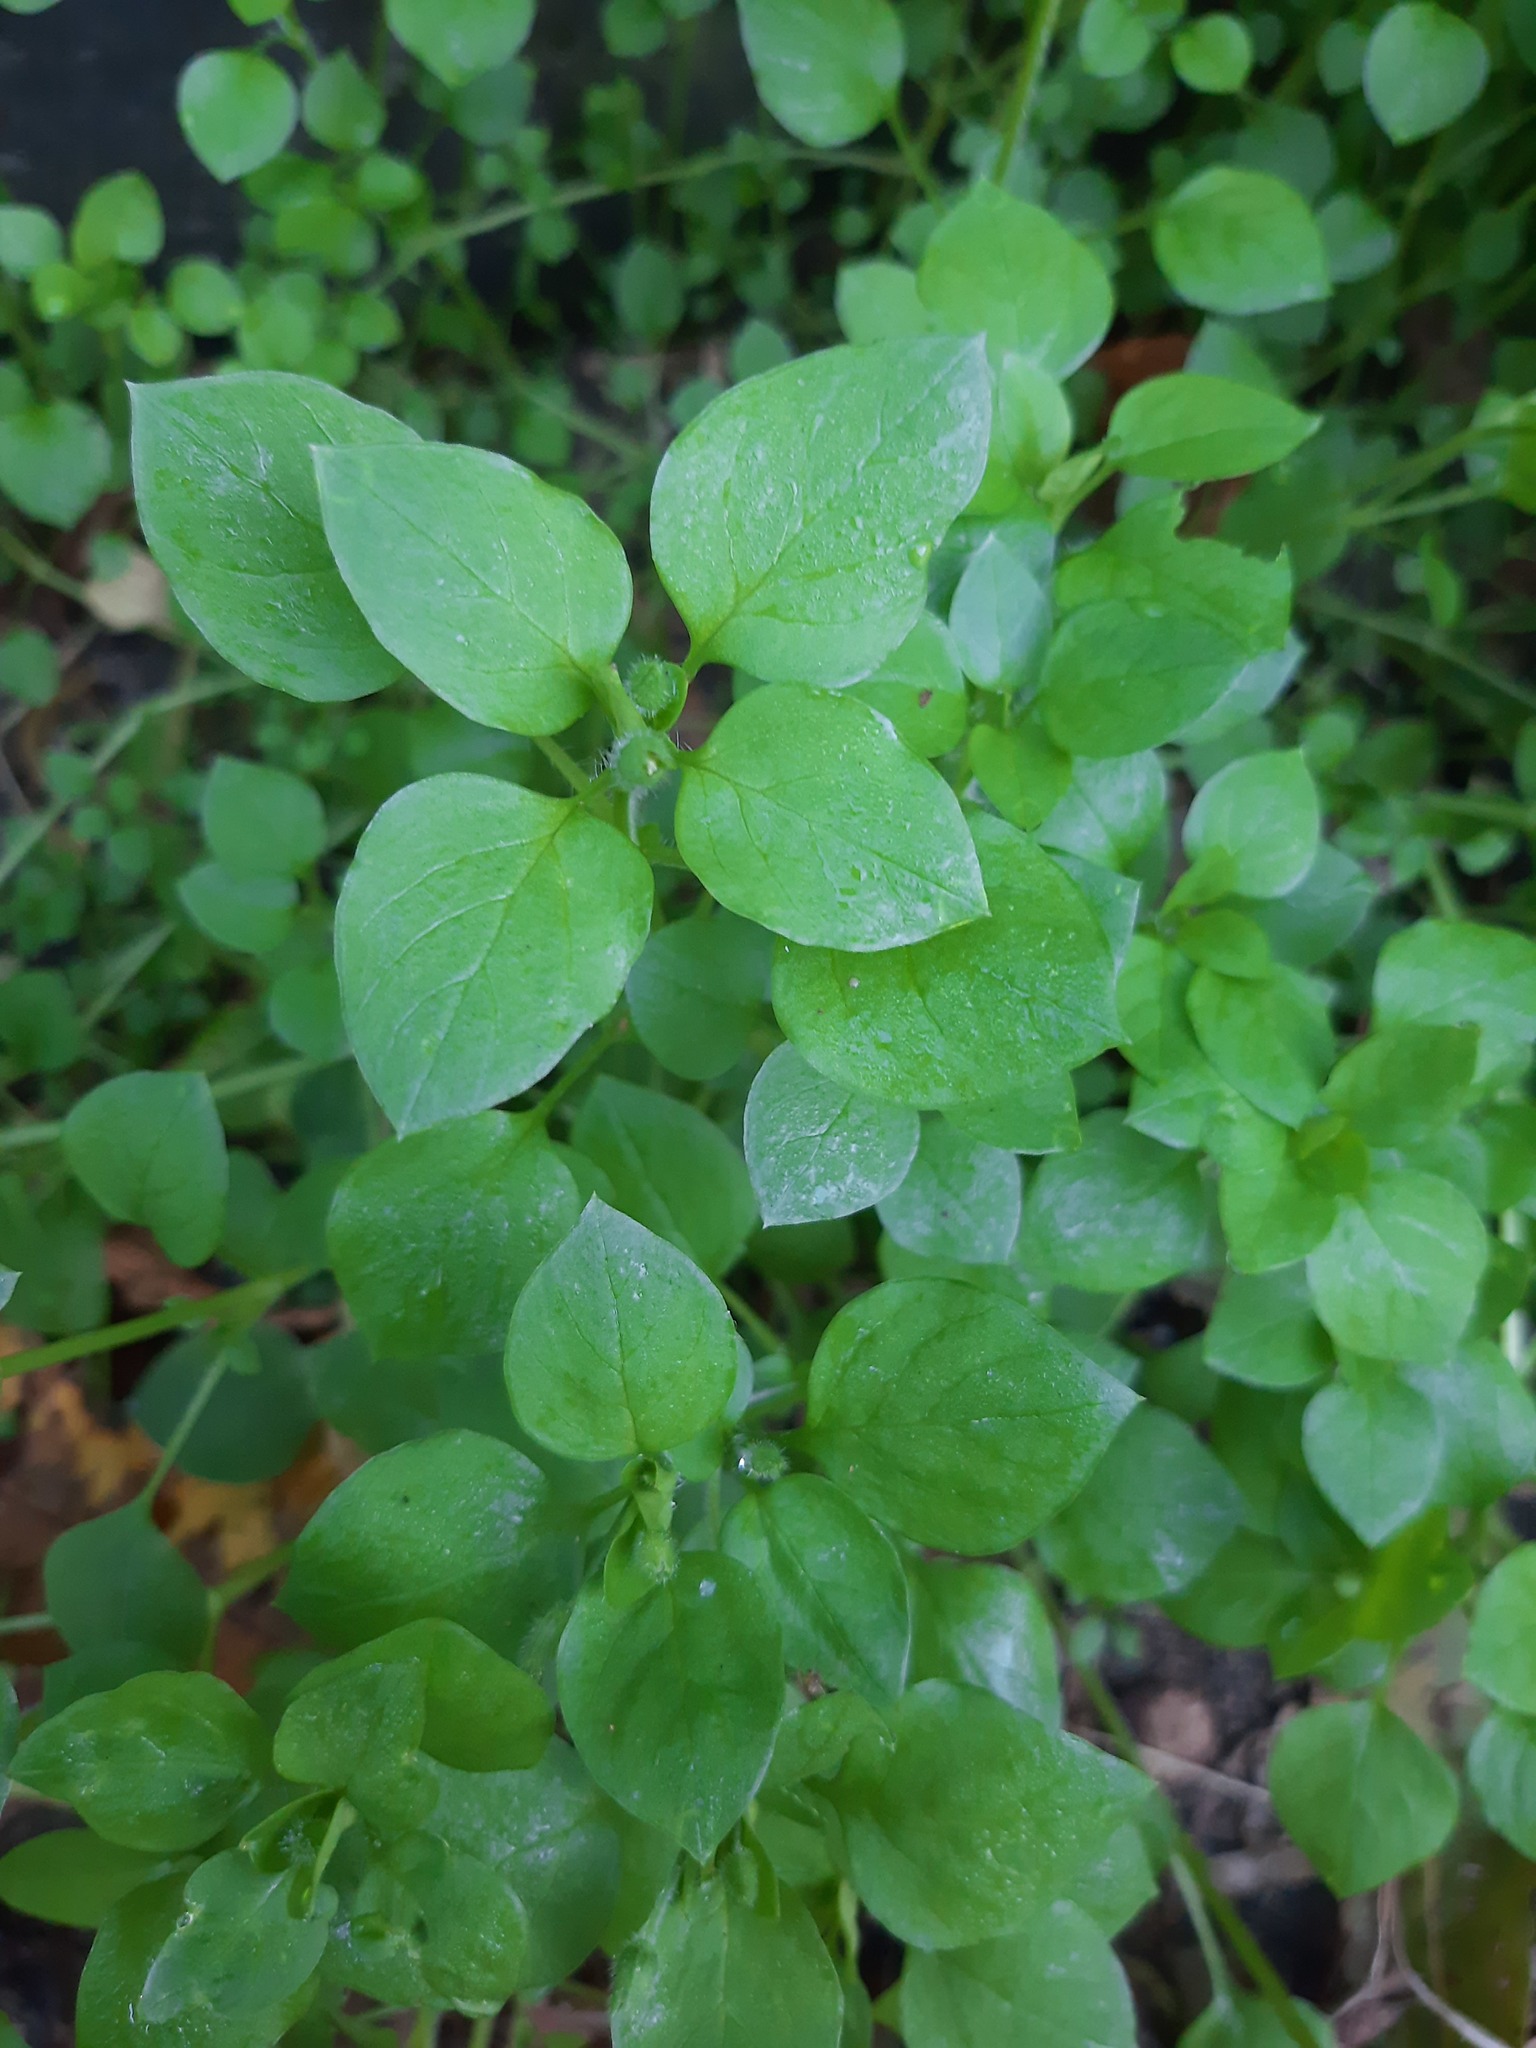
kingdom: Plantae
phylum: Tracheophyta
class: Magnoliopsida
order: Caryophyllales
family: Caryophyllaceae
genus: Stellaria
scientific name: Stellaria media
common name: Common chickweed
